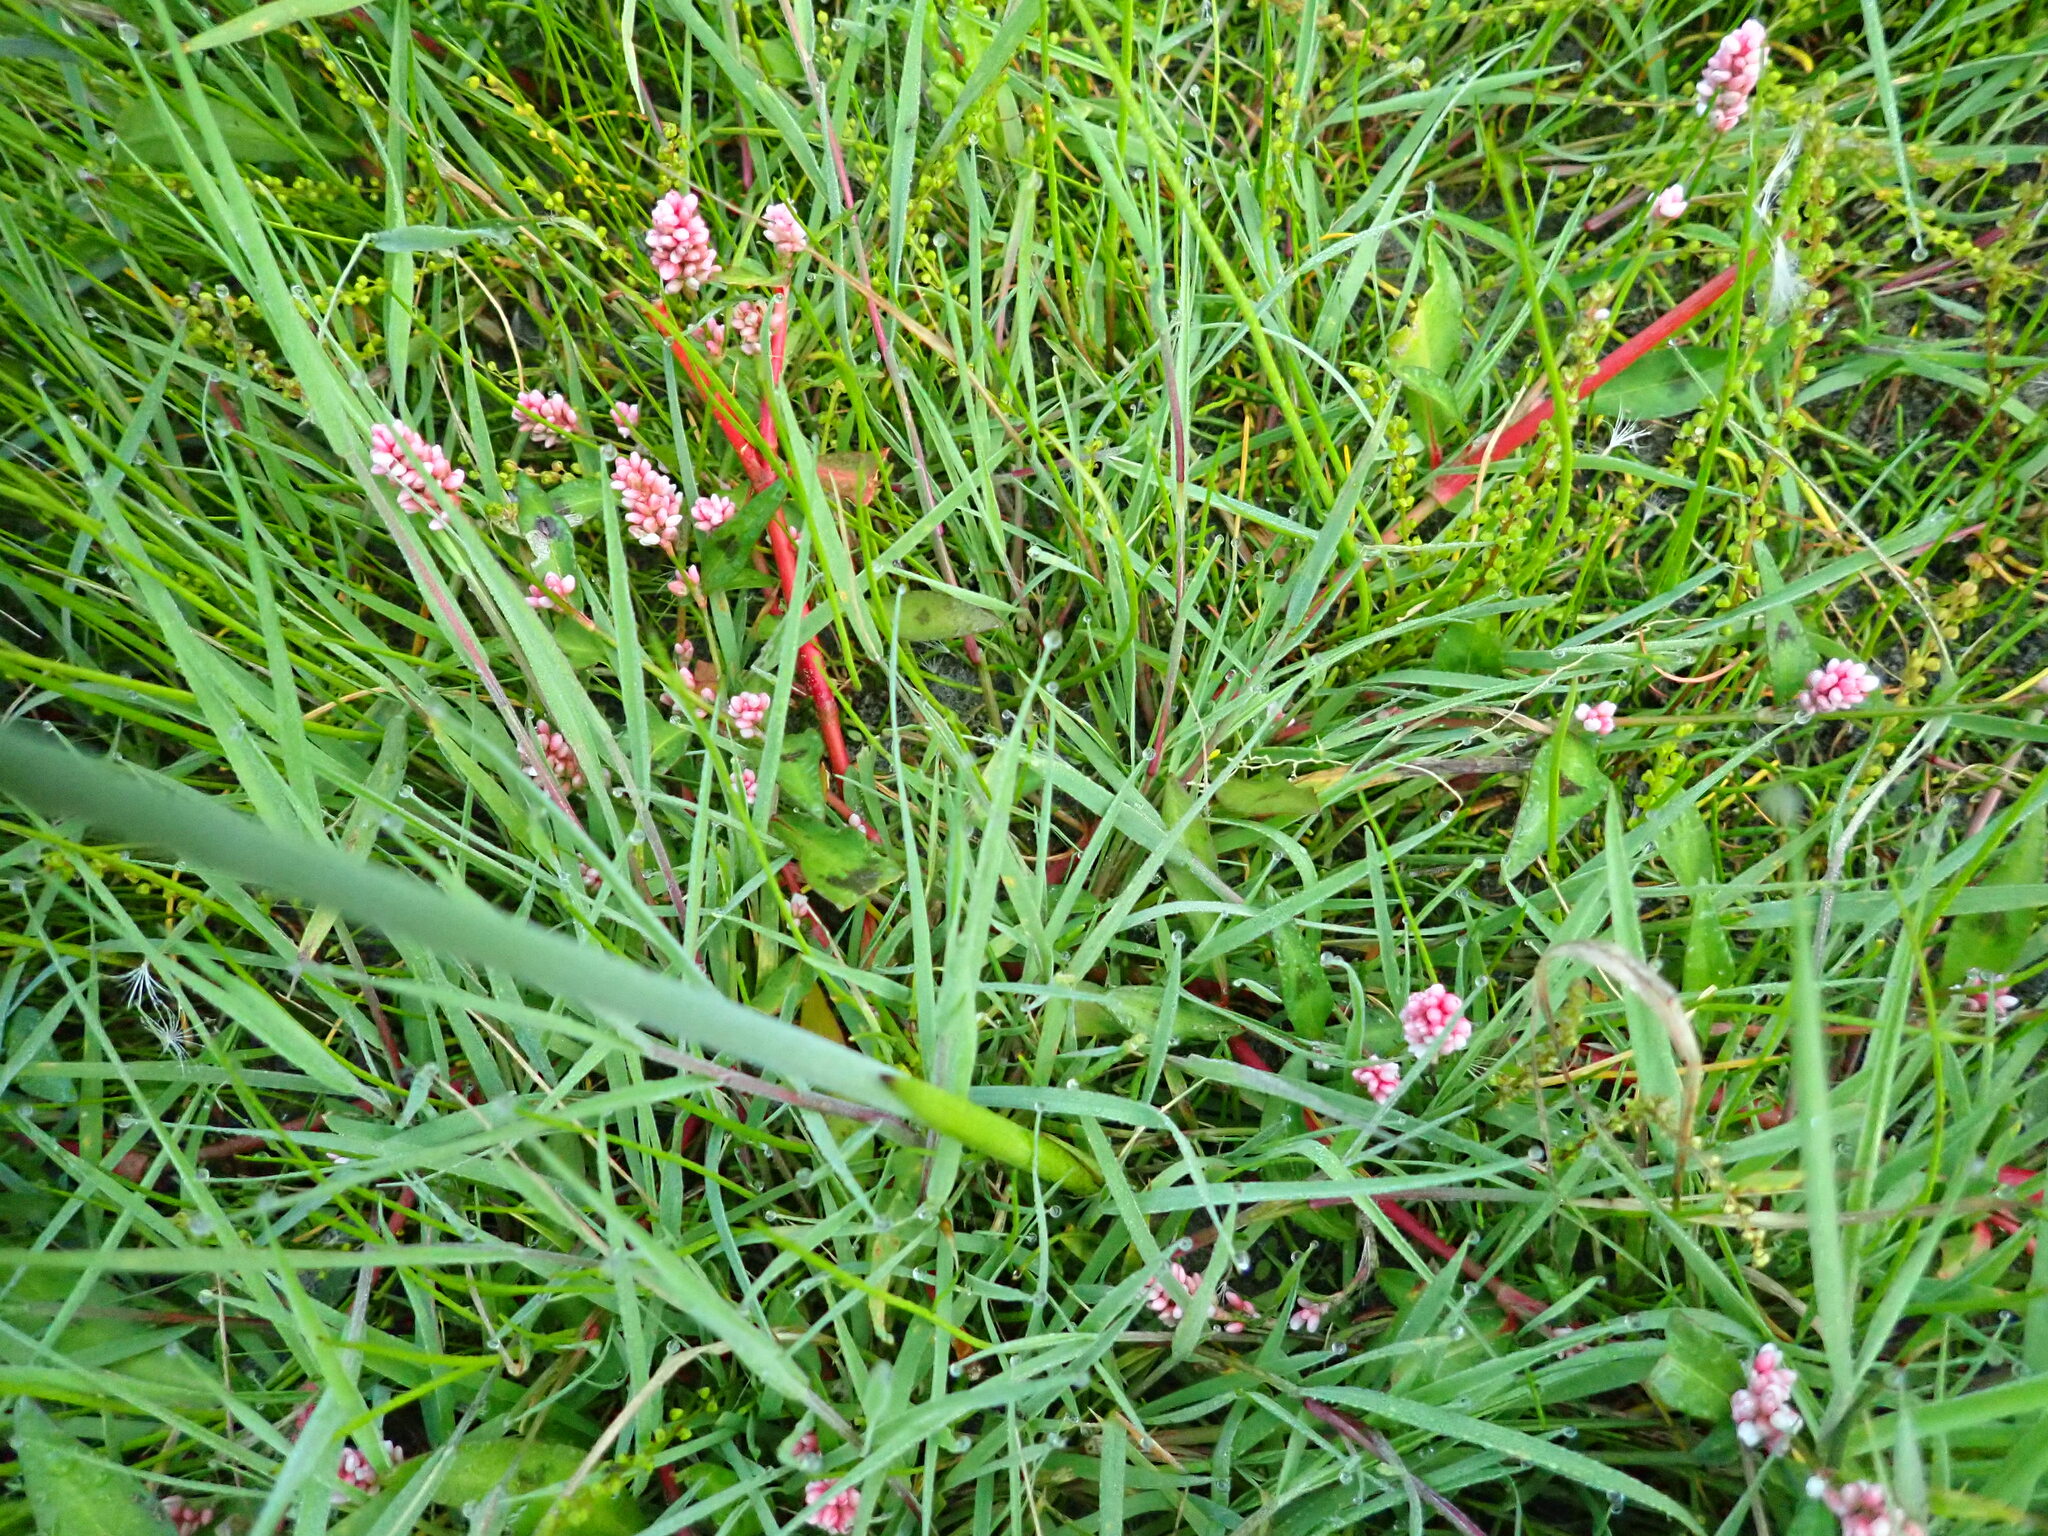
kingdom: Plantae
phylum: Tracheophyta
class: Magnoliopsida
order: Caryophyllales
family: Polygonaceae
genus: Persicaria
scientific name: Persicaria maculosa
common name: Redshank
